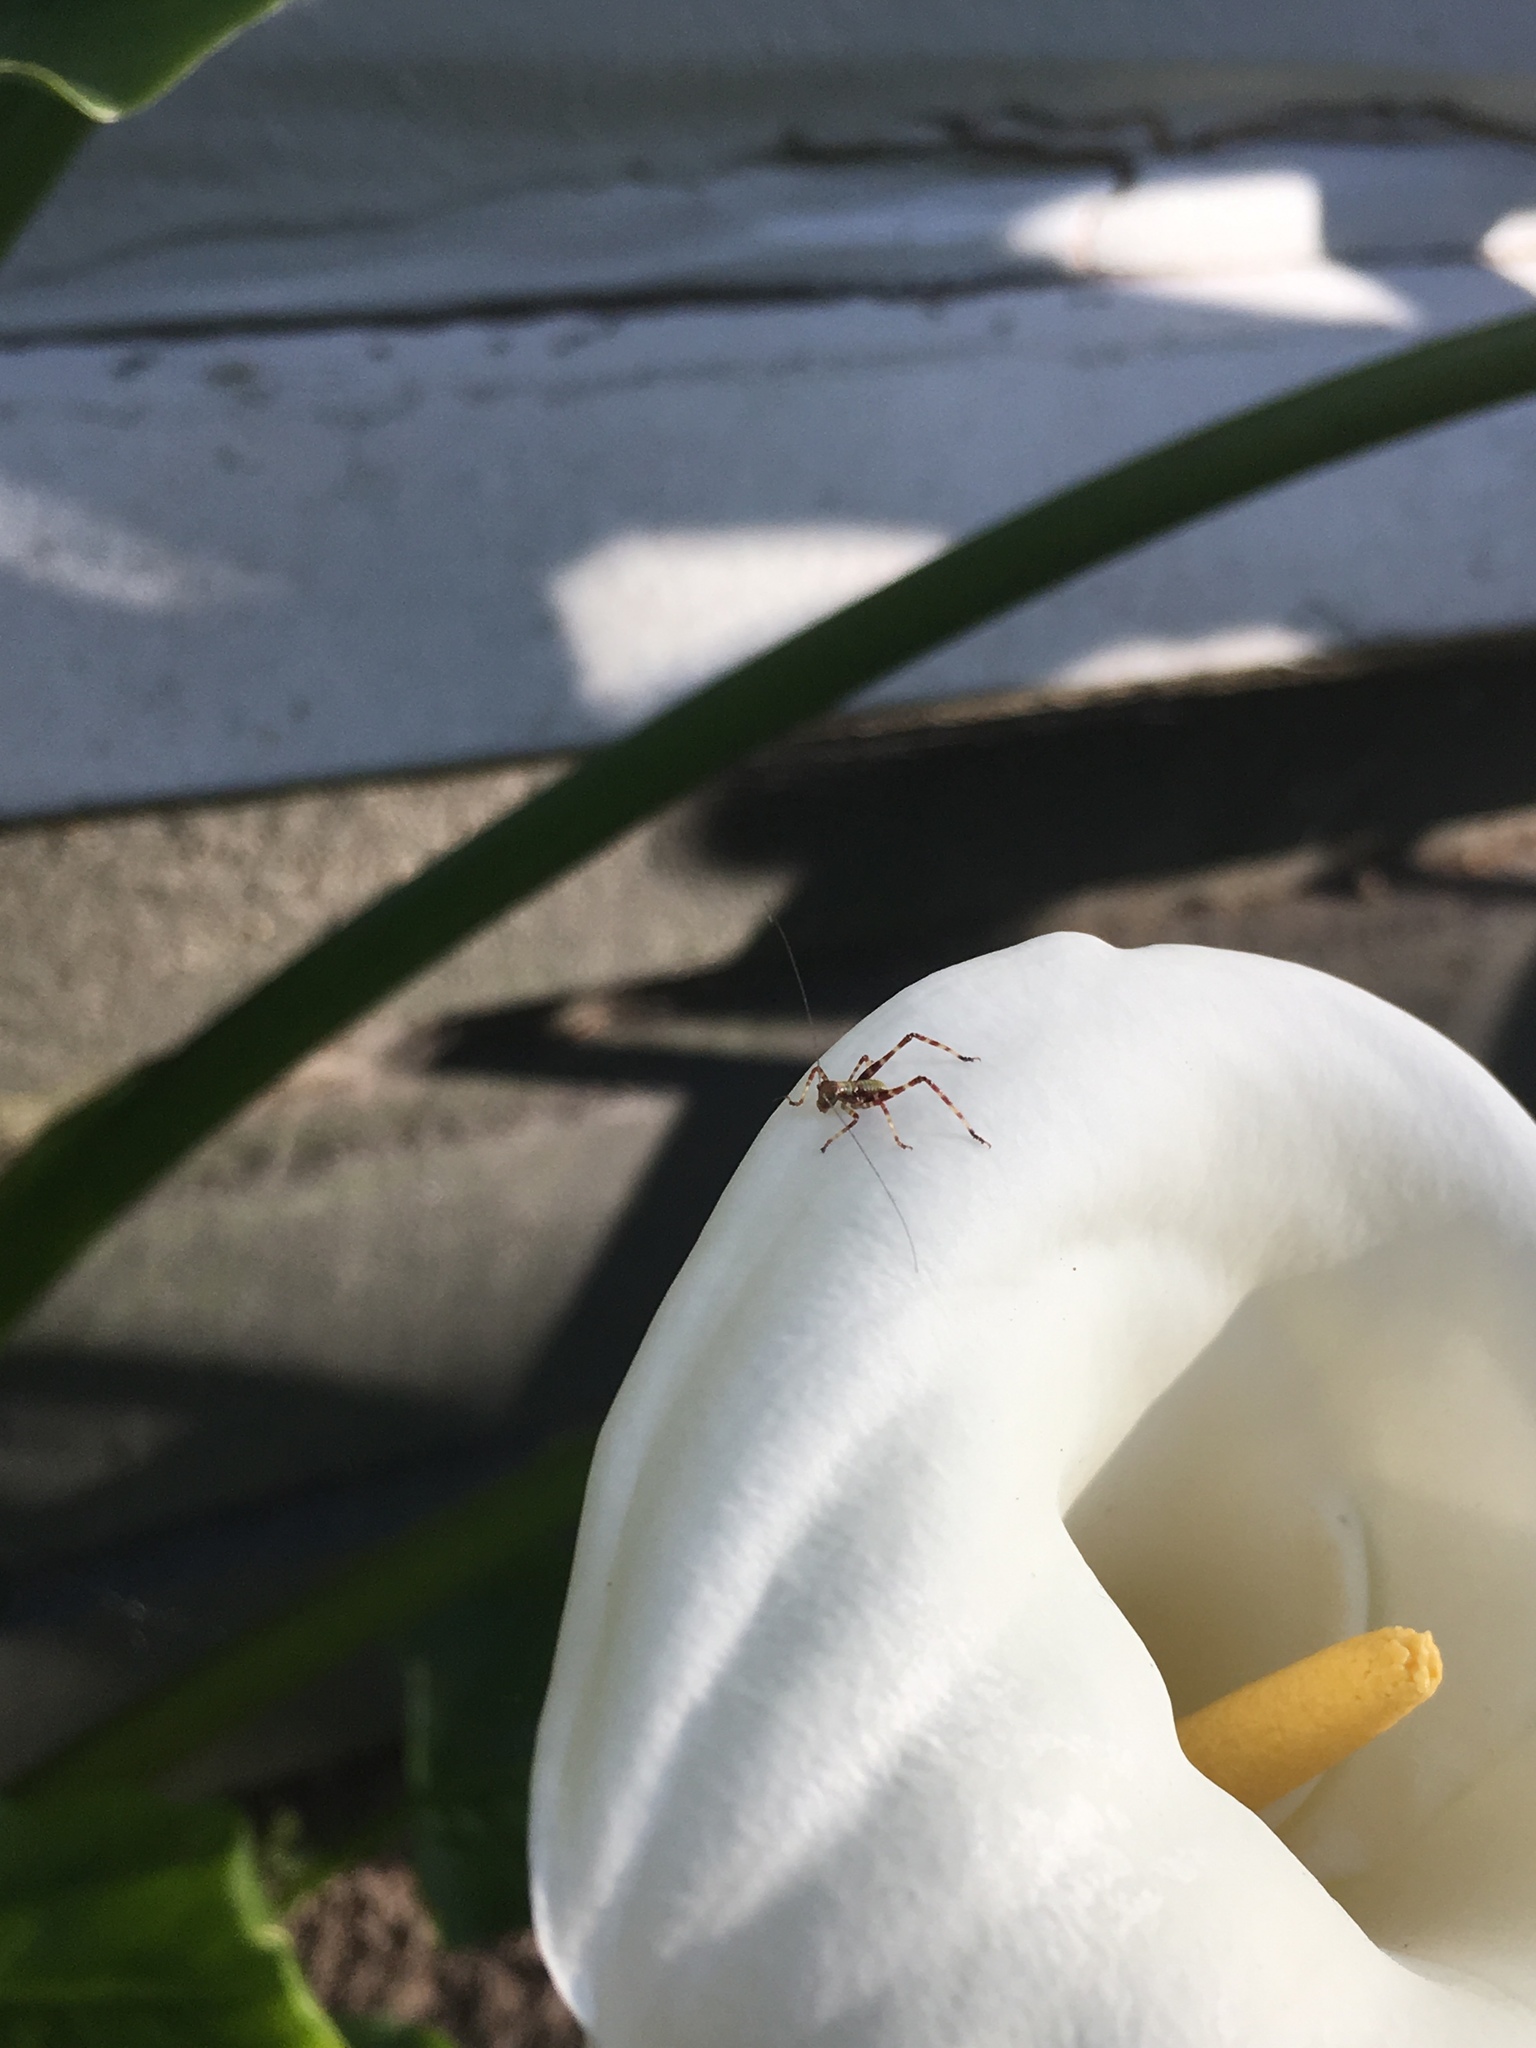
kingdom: Animalia
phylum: Arthropoda
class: Insecta
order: Orthoptera
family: Tettigoniidae
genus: Caedicia
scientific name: Caedicia simplex
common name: Common garden katydid
